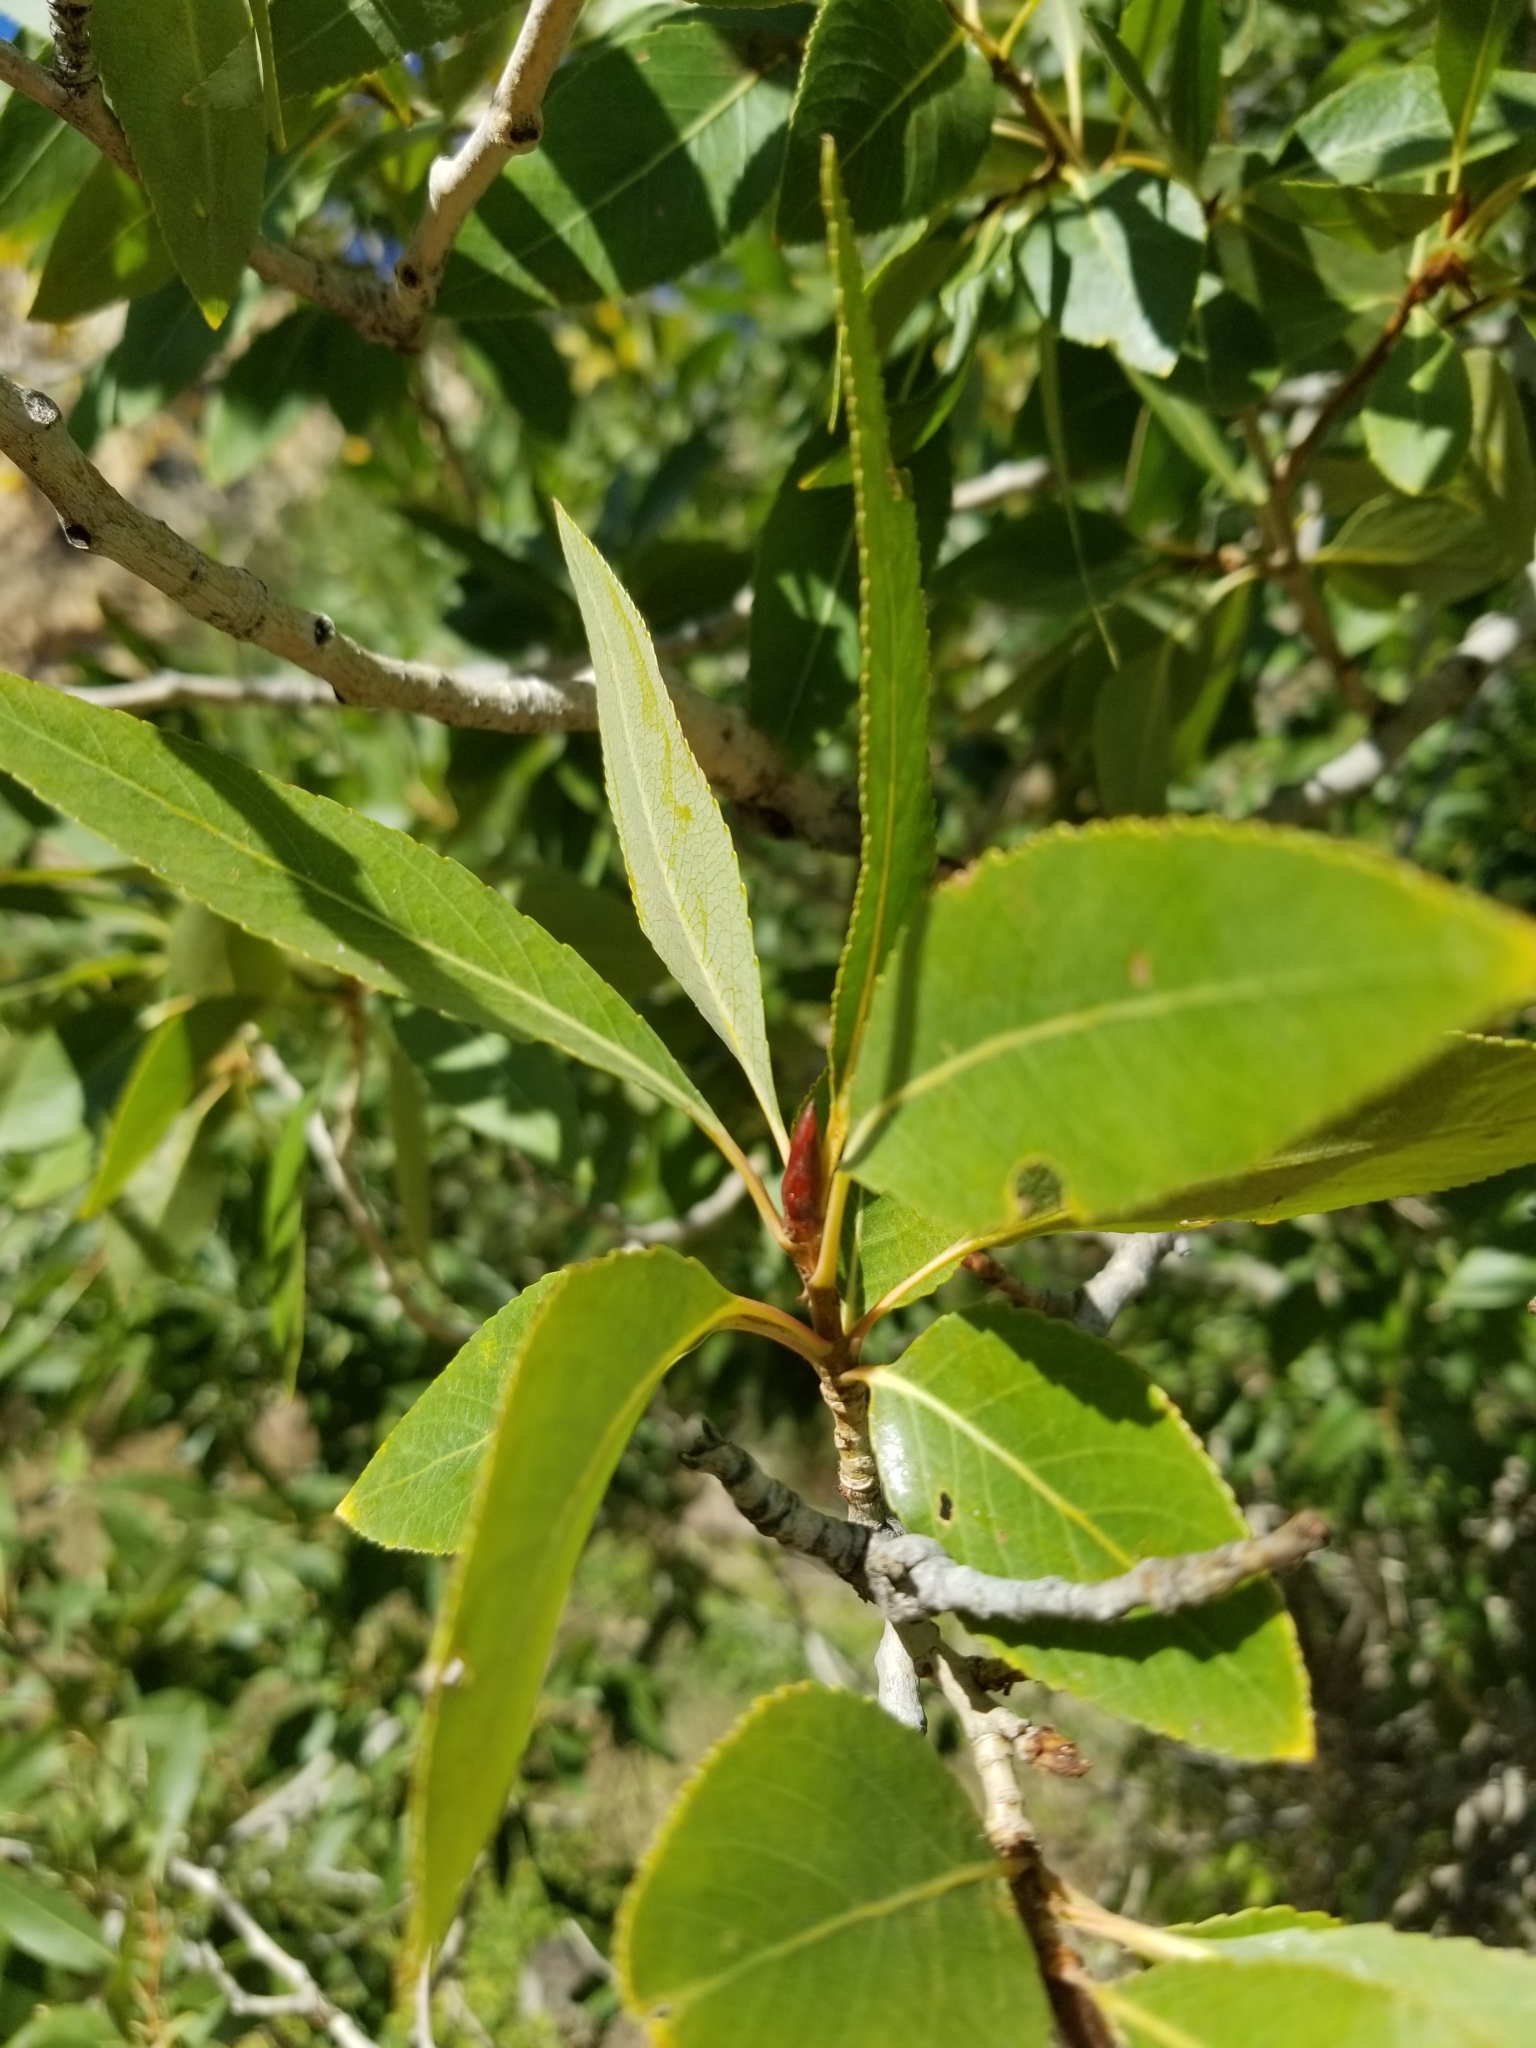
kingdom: Plantae
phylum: Tracheophyta
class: Magnoliopsida
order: Malpighiales
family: Salicaceae
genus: Populus
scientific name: Populus angustifolia
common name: Willow cottonwood
